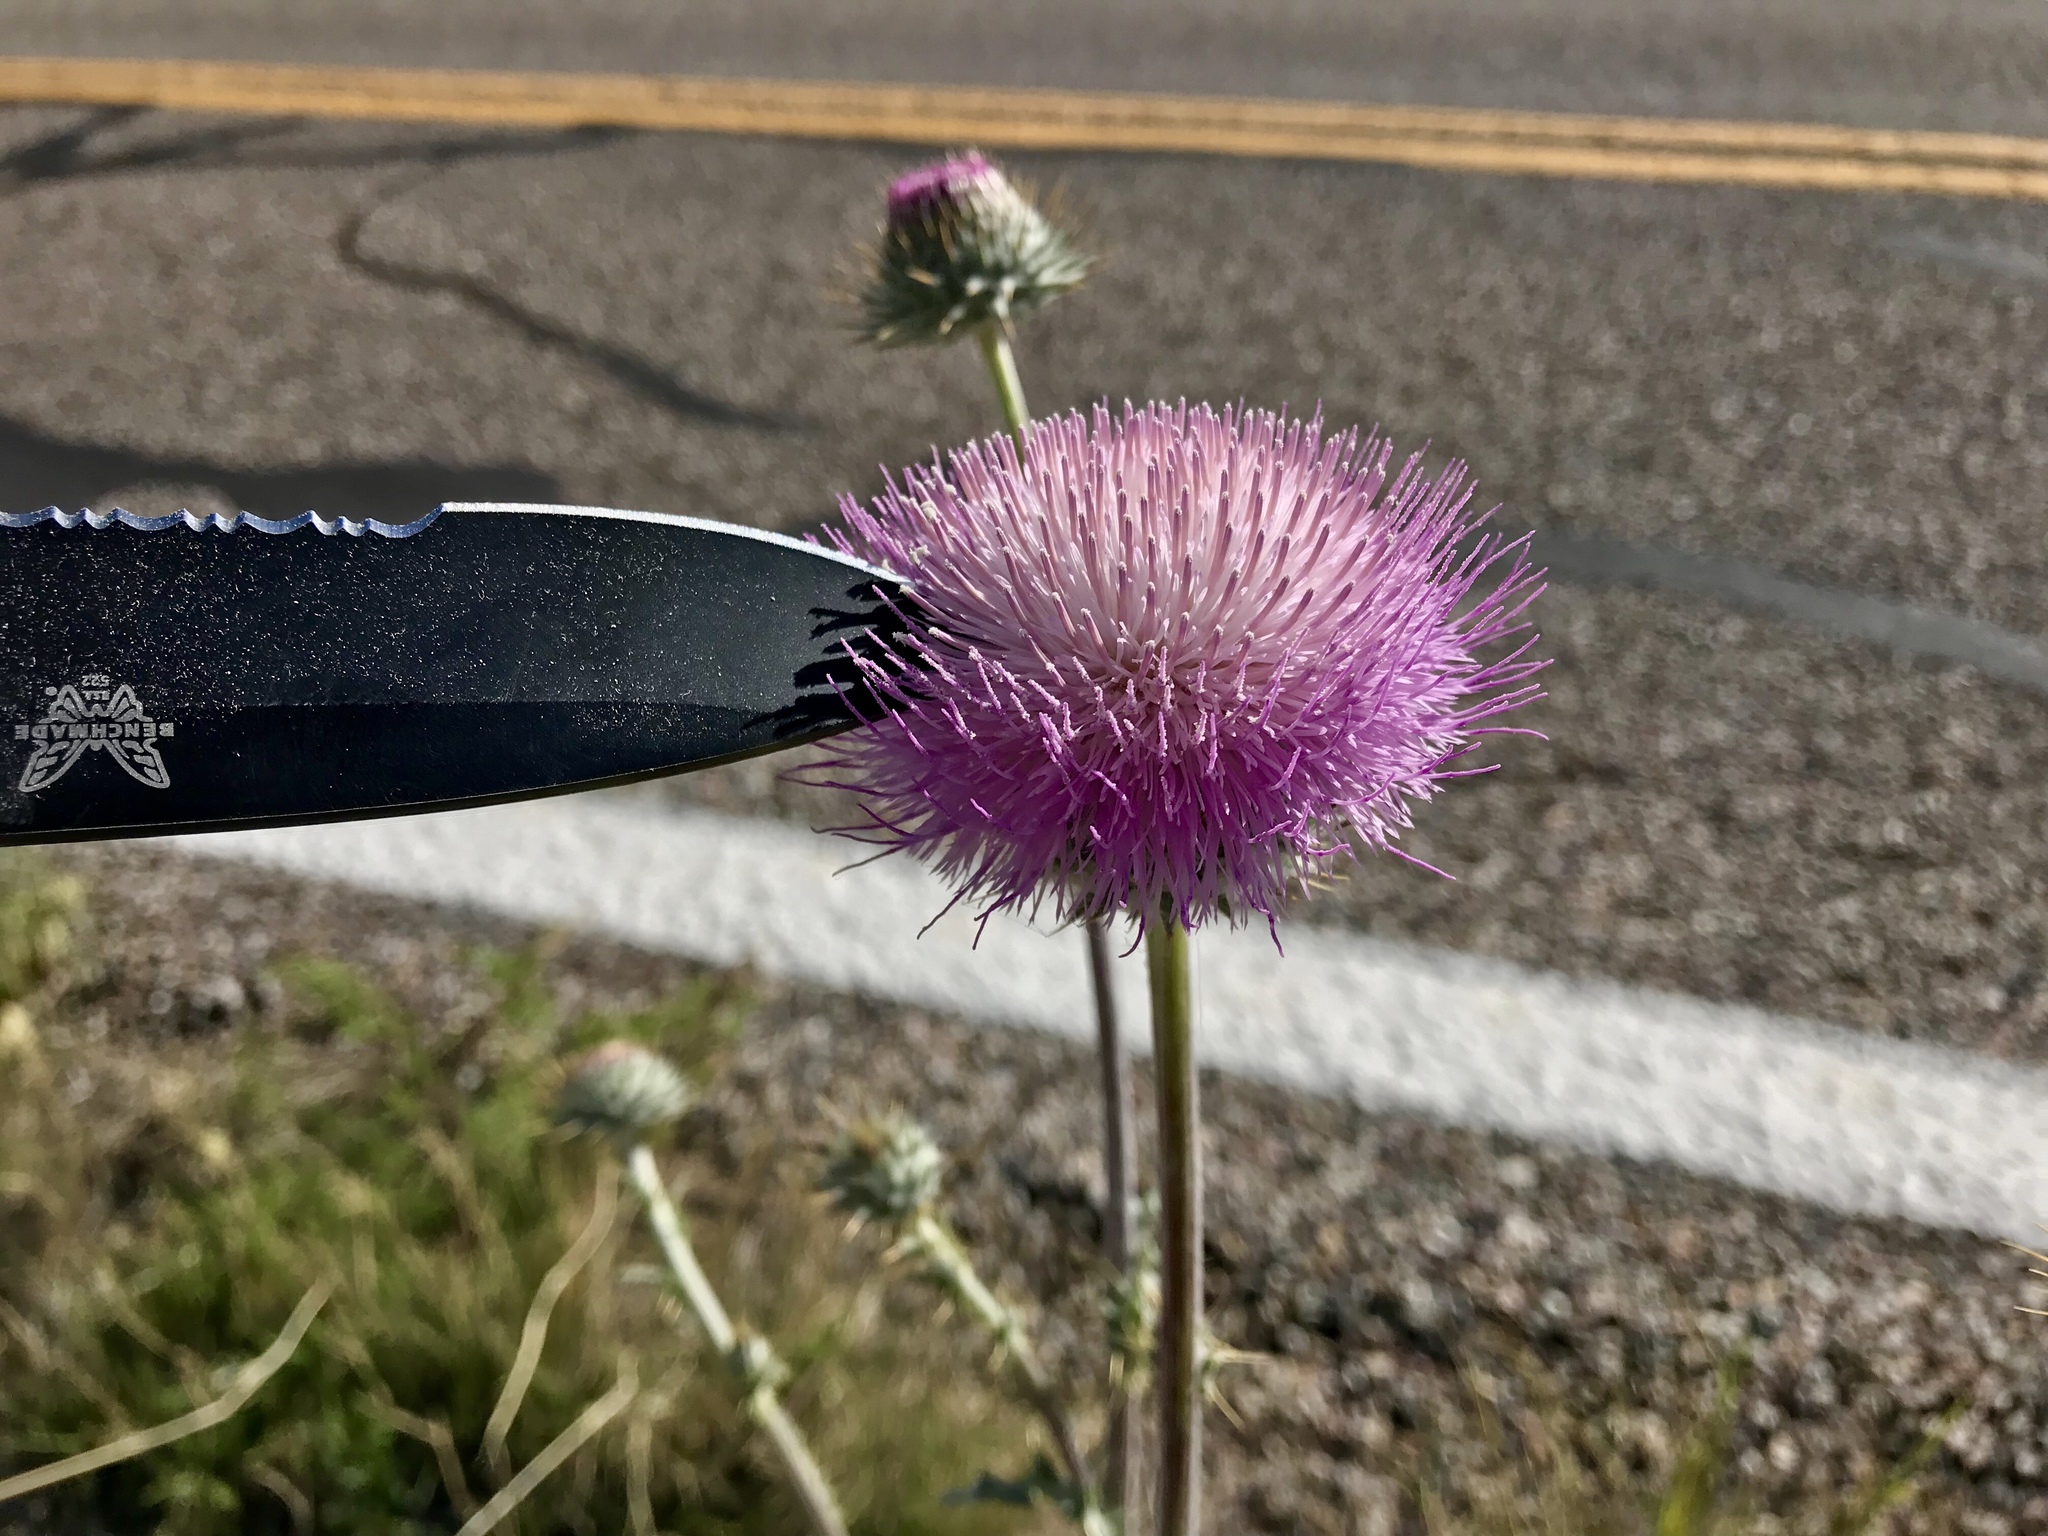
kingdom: Plantae
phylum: Tracheophyta
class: Magnoliopsida
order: Asterales
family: Asteraceae
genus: Cirsium
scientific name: Cirsium neomexicanum
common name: New mexico thistle
